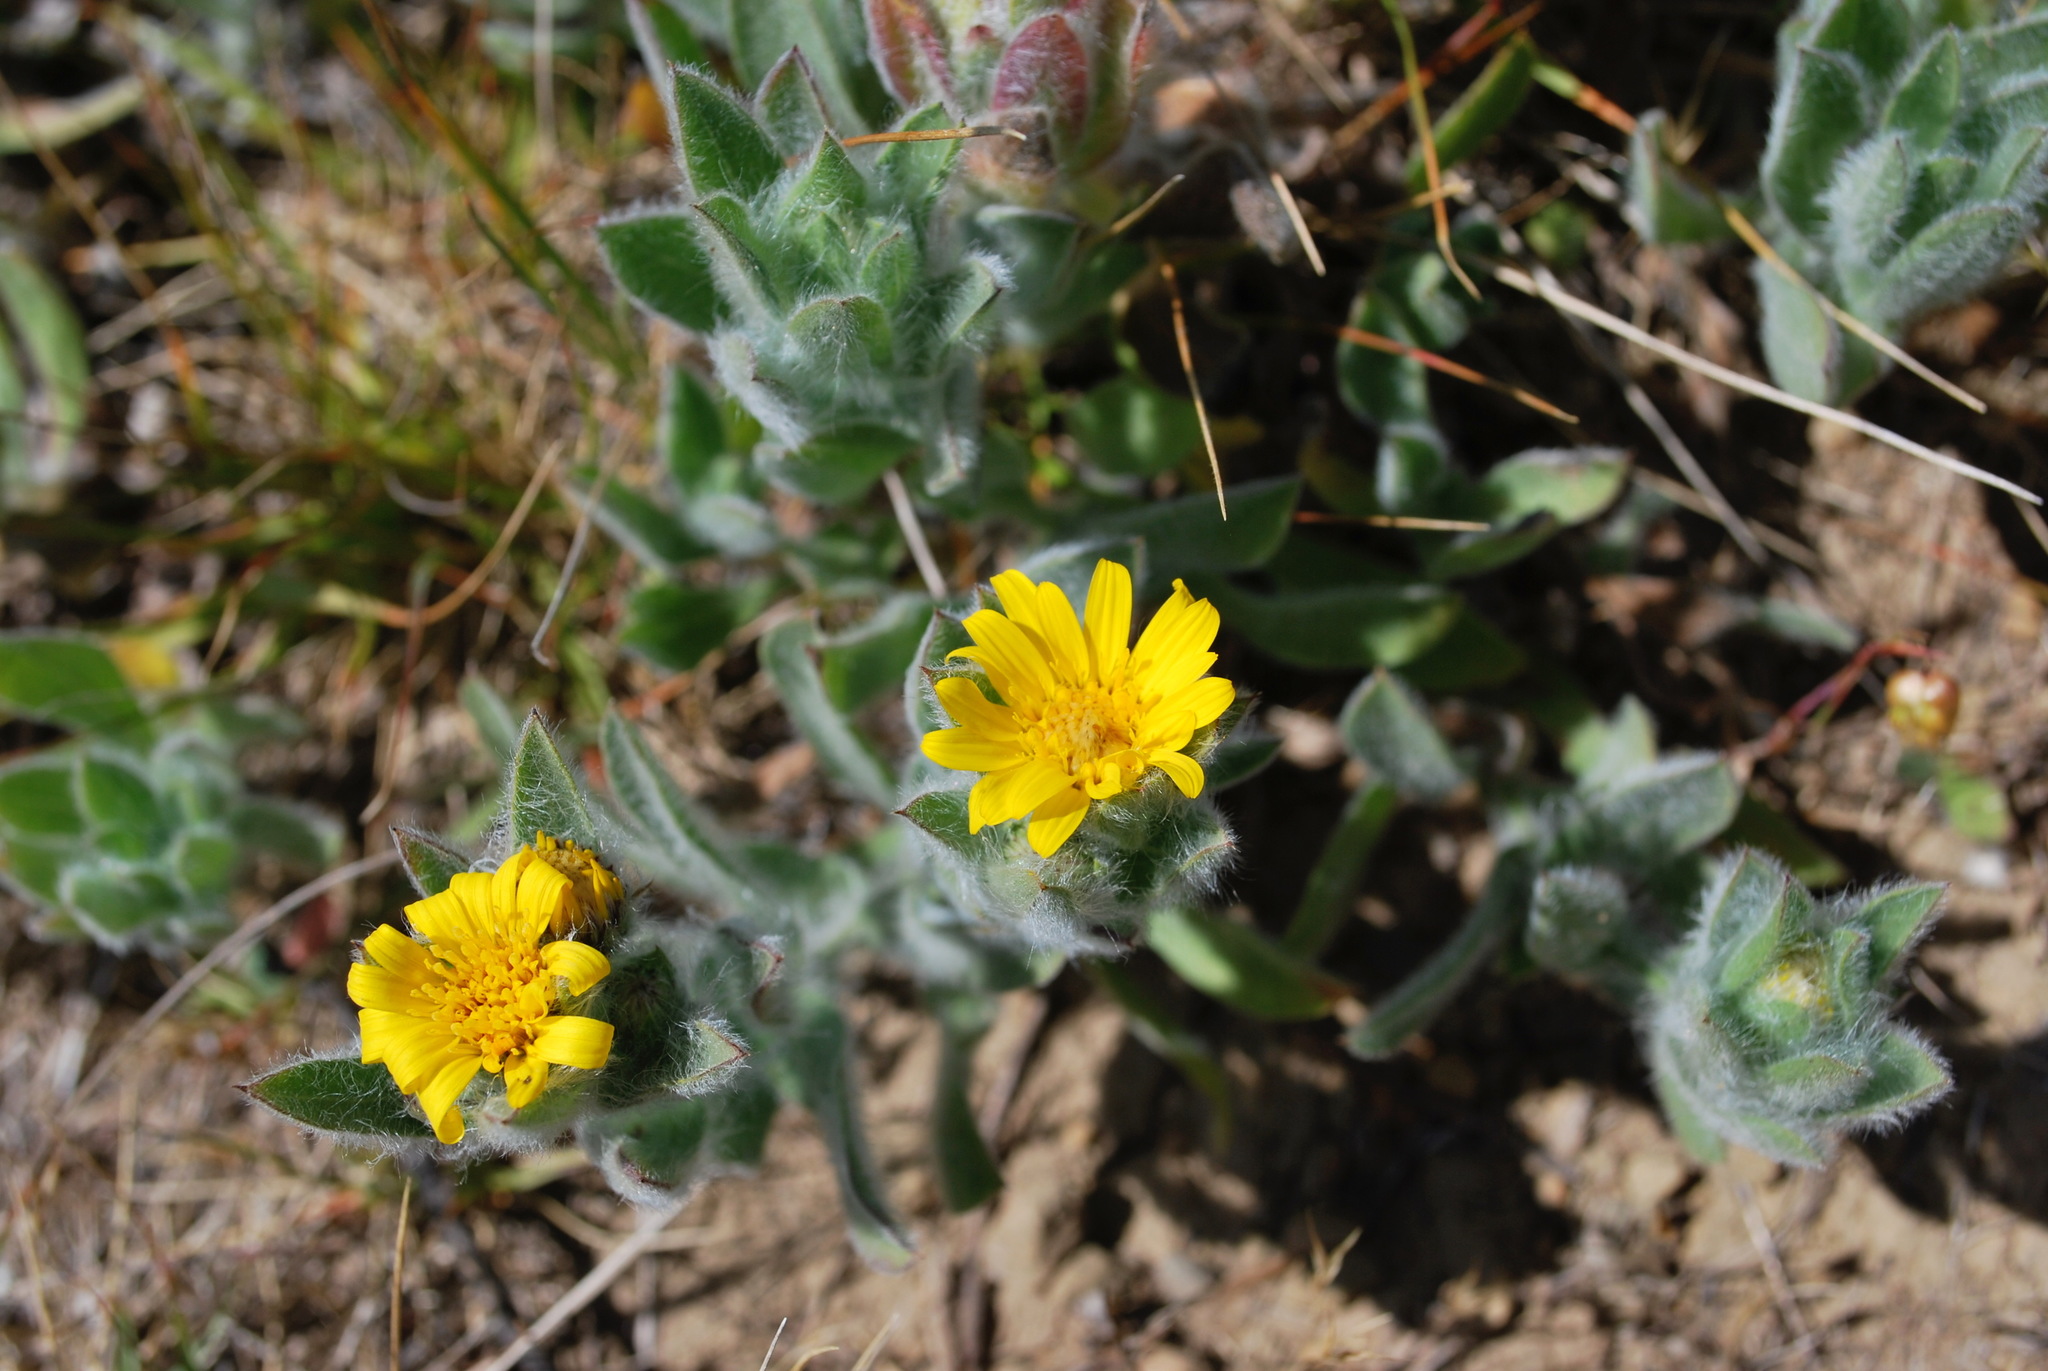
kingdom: Plantae
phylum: Tracheophyta
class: Magnoliopsida
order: Asterales
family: Asteraceae
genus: Heterotheca
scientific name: Heterotheca sessiliflora
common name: Sessile-flower golden-aster
